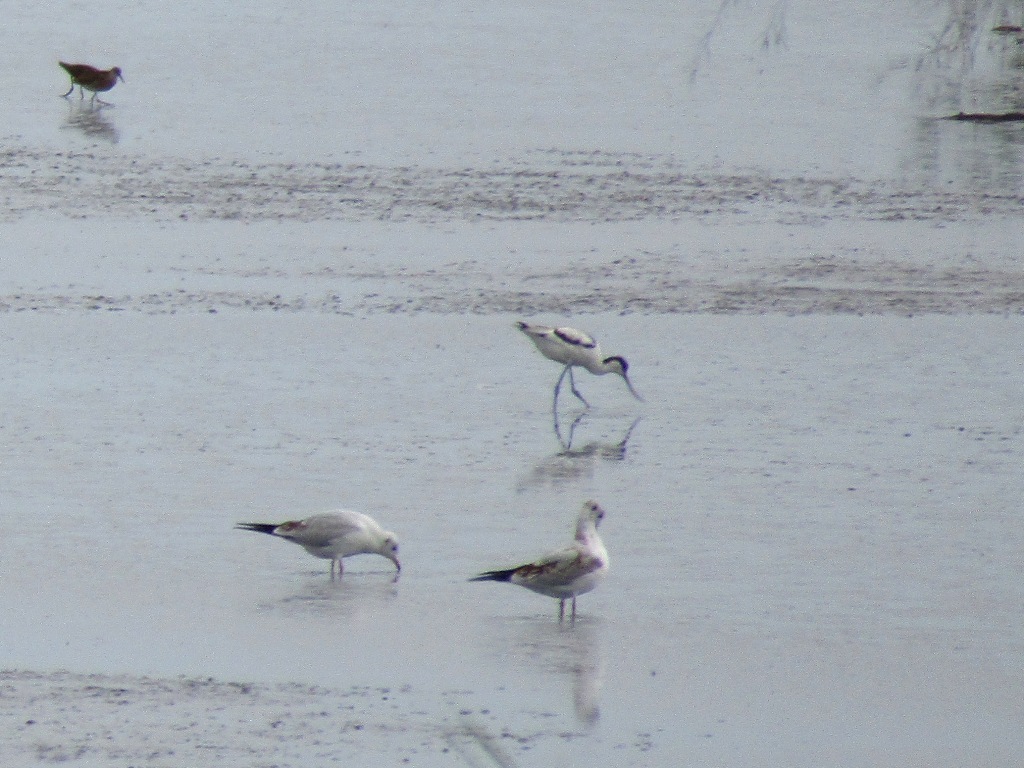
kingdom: Animalia
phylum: Chordata
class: Aves
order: Charadriiformes
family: Recurvirostridae
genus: Recurvirostra
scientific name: Recurvirostra avosetta
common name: Pied avocet
